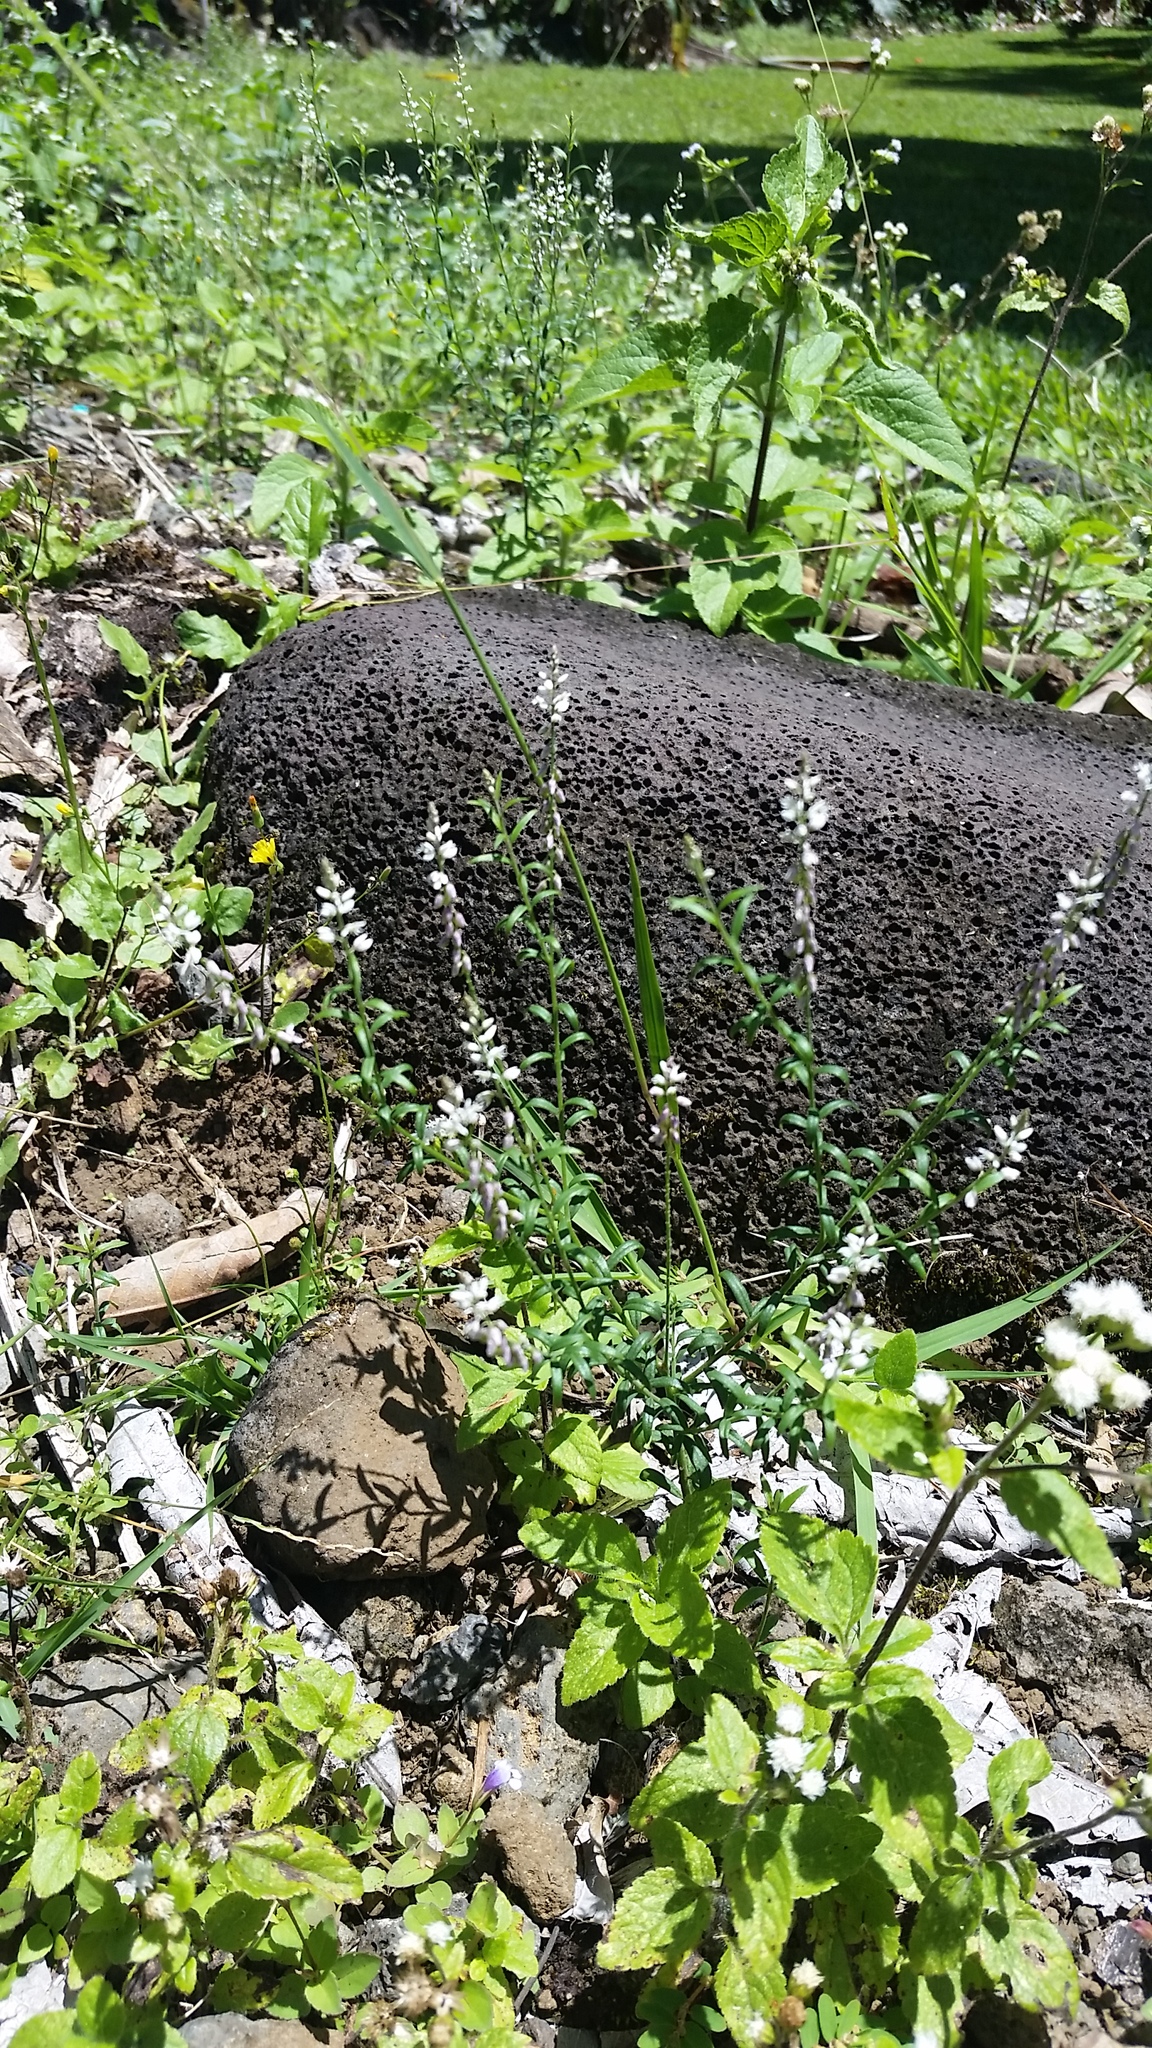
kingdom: Plantae
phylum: Tracheophyta
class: Magnoliopsida
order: Fabales
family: Polygalaceae
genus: Polygala
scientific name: Polygala paniculata
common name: Orosne
